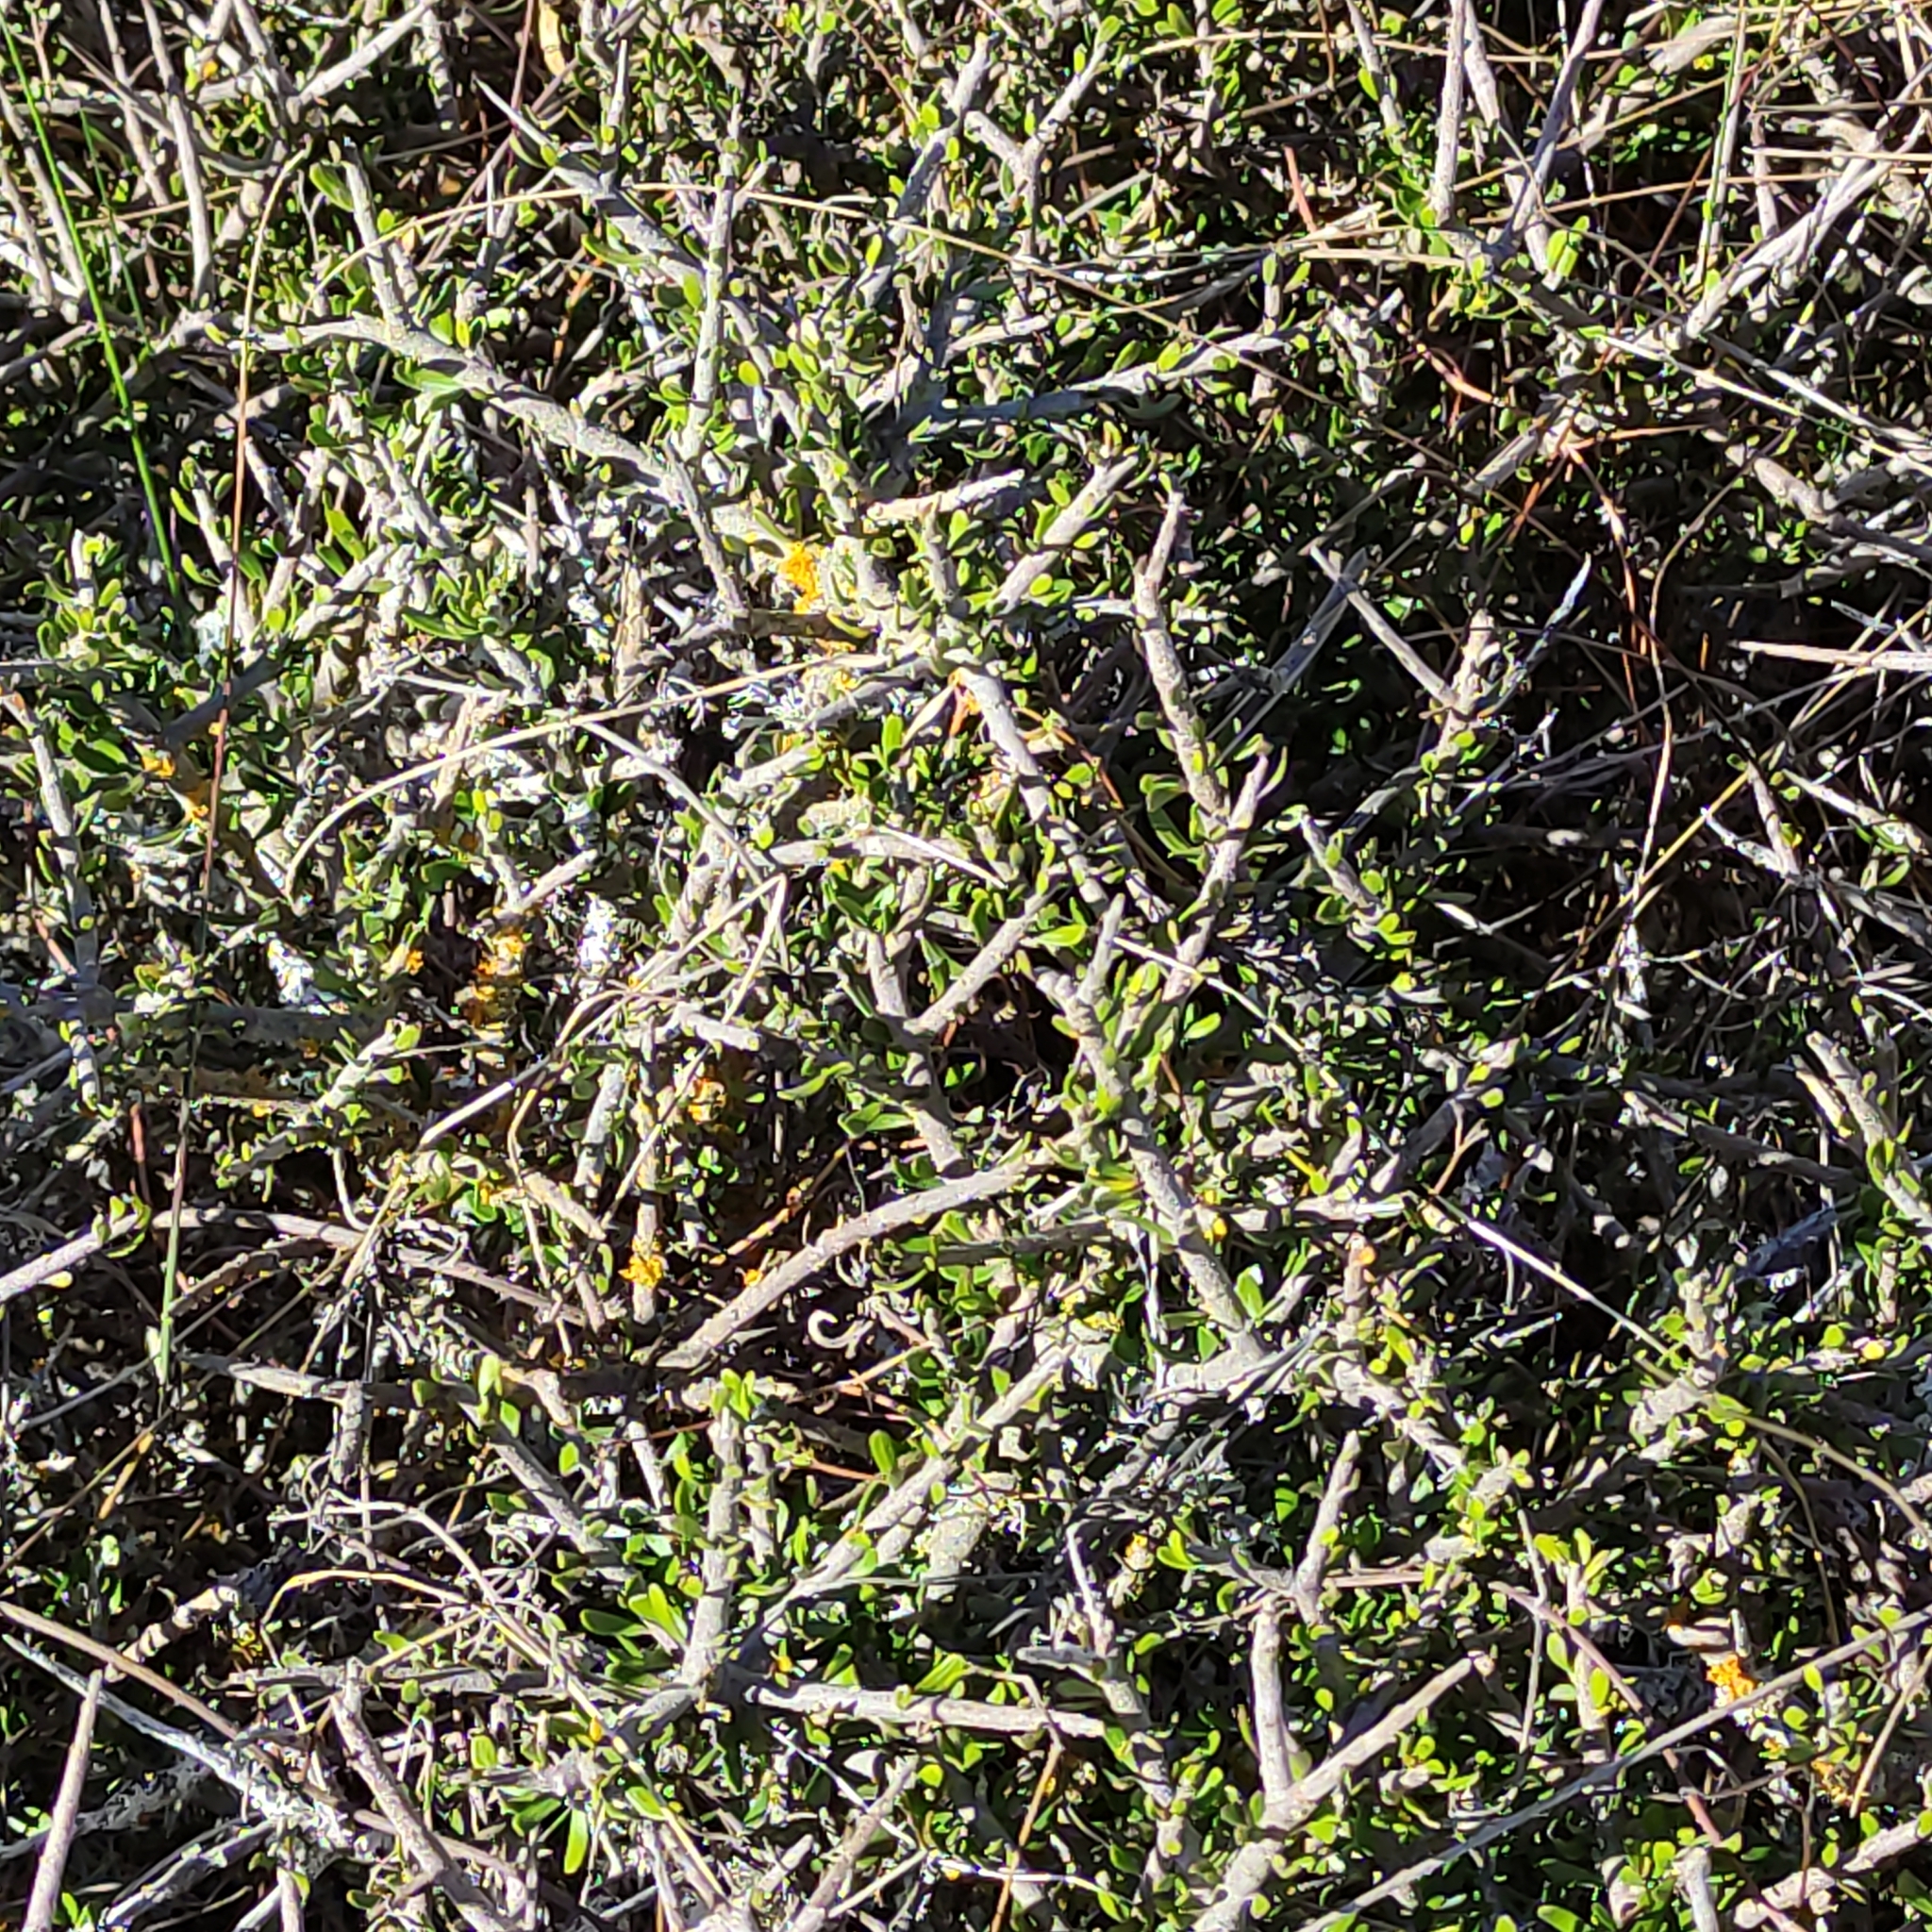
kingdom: Plantae
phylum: Tracheophyta
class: Magnoliopsida
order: Malpighiales
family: Violaceae
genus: Melicytus
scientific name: Melicytus alpinus
